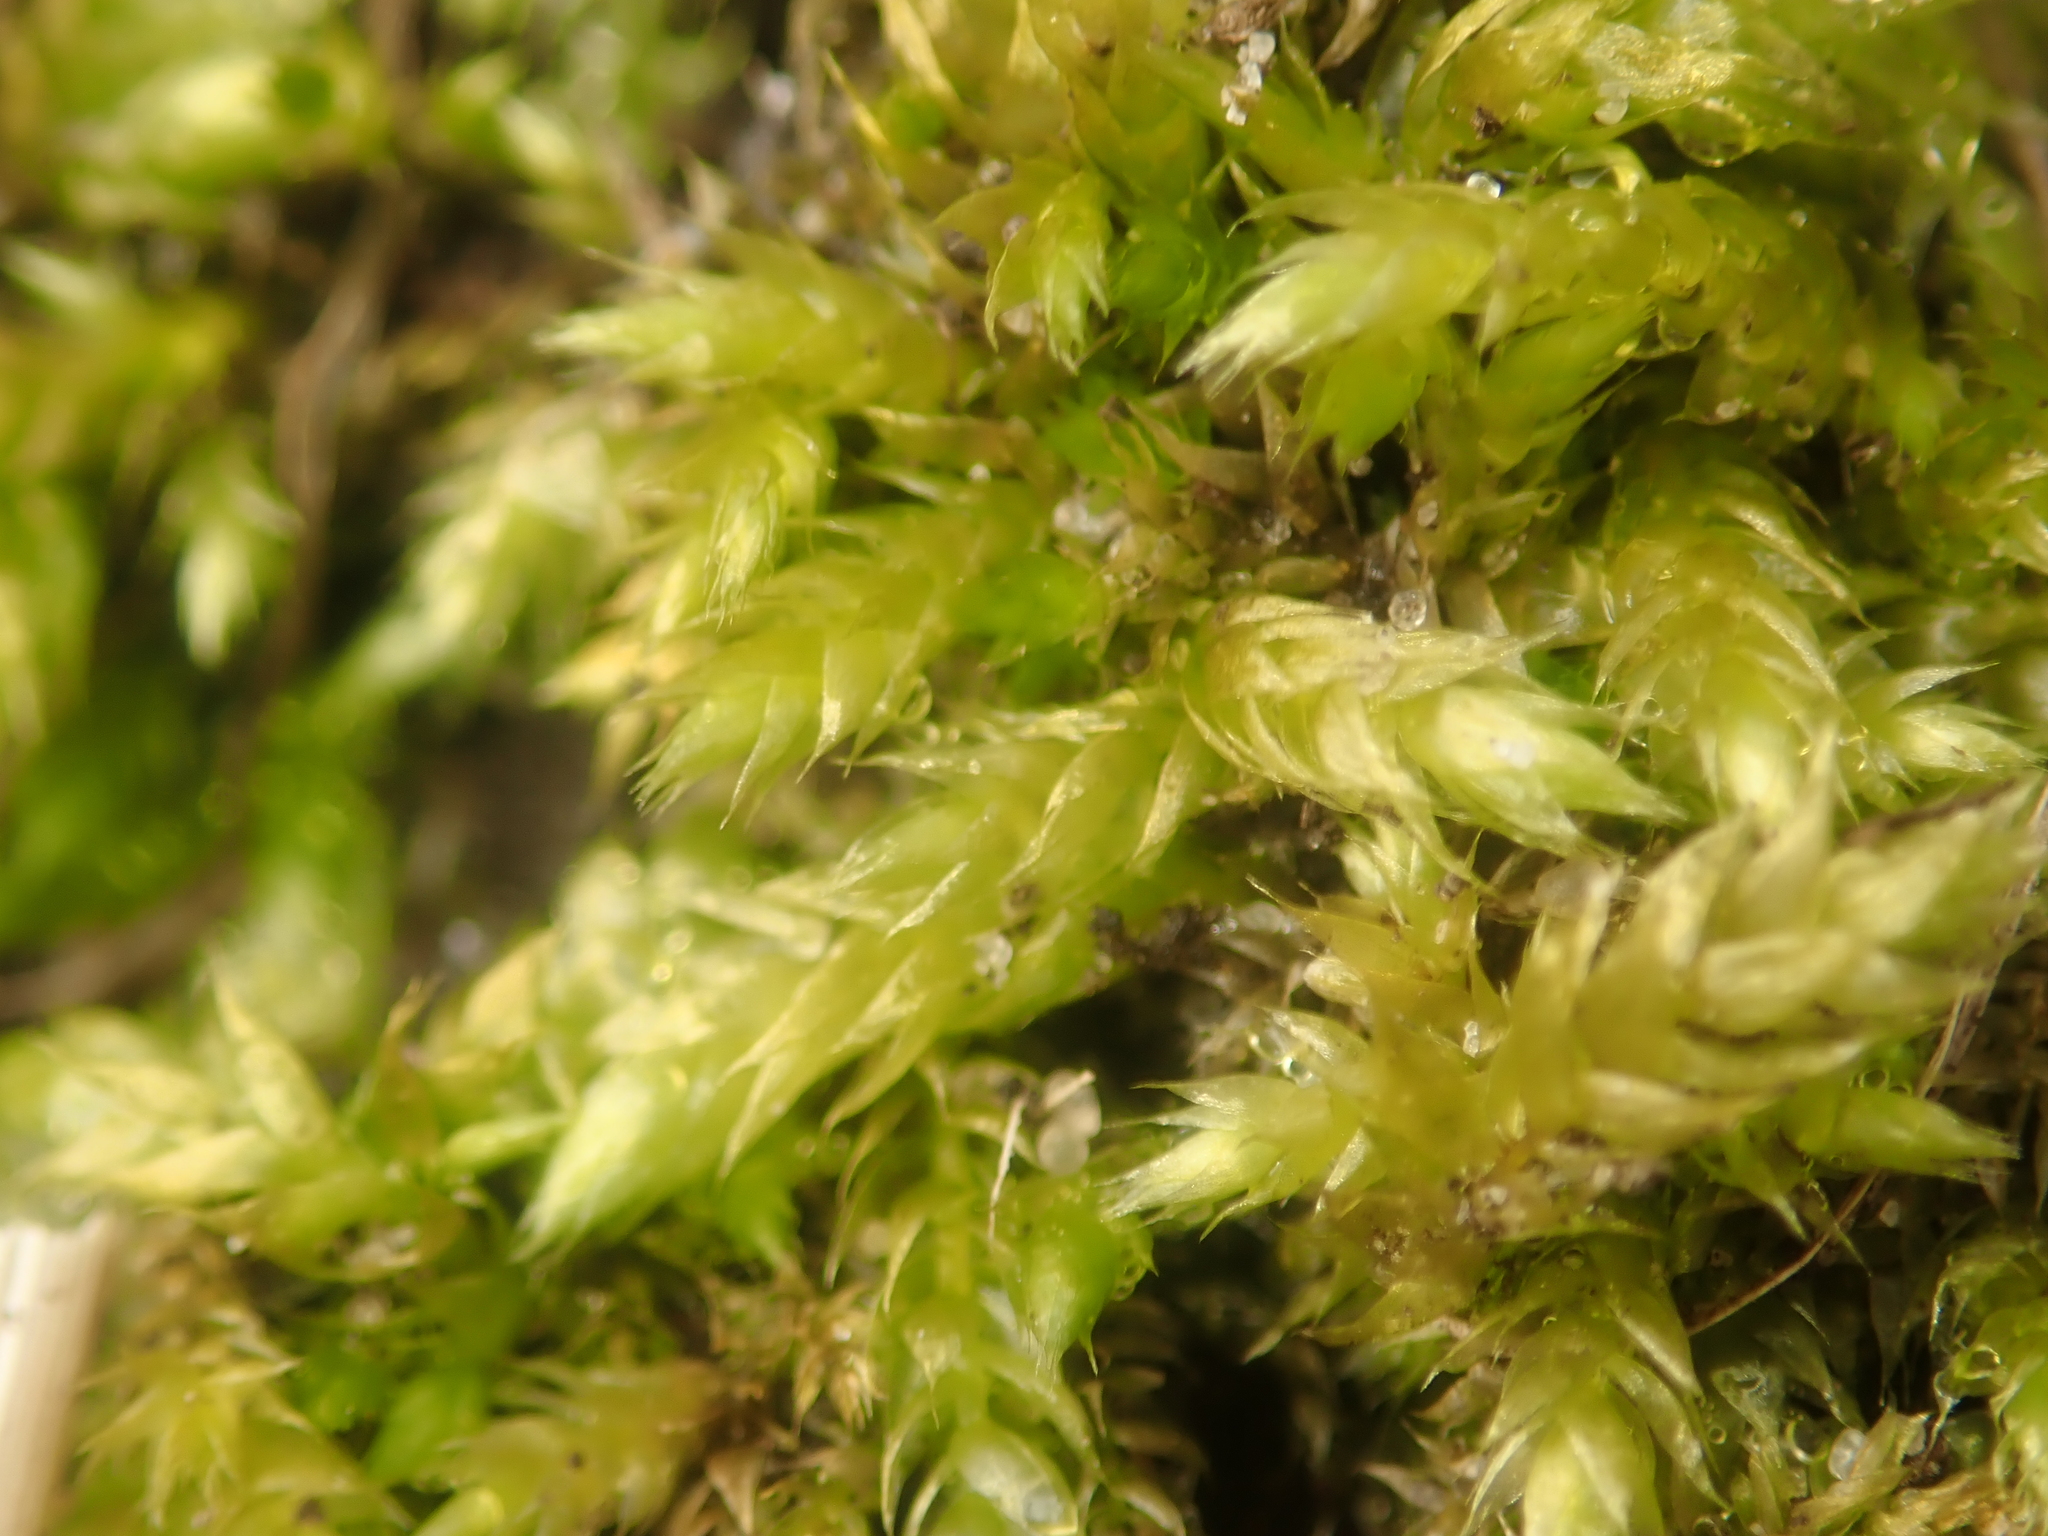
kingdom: Plantae
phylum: Bryophyta
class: Bryopsida
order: Hypnales
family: Brachytheciaceae
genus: Brachythecium
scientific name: Brachythecium rutabulum
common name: Rough-stalked feather-moss
